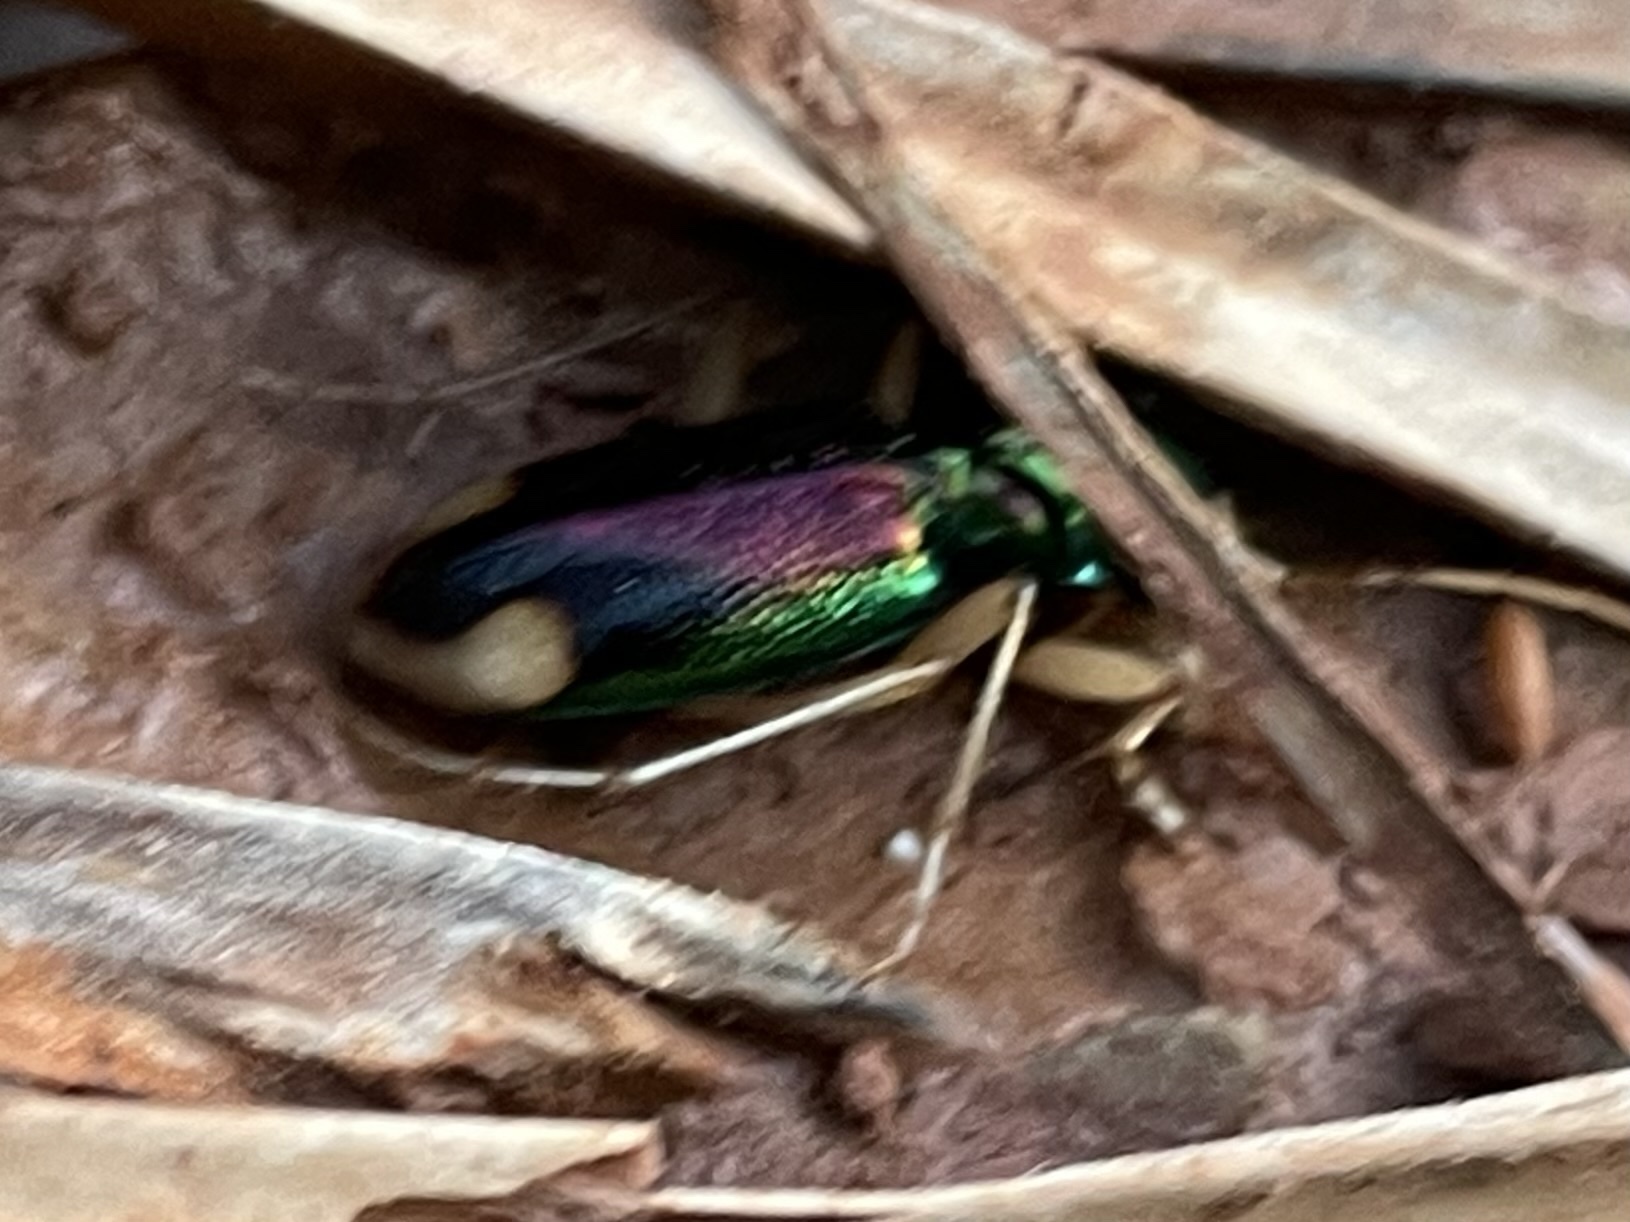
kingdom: Animalia
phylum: Arthropoda
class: Insecta
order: Coleoptera
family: Carabidae
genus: Tetracha
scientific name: Tetracha carolina
